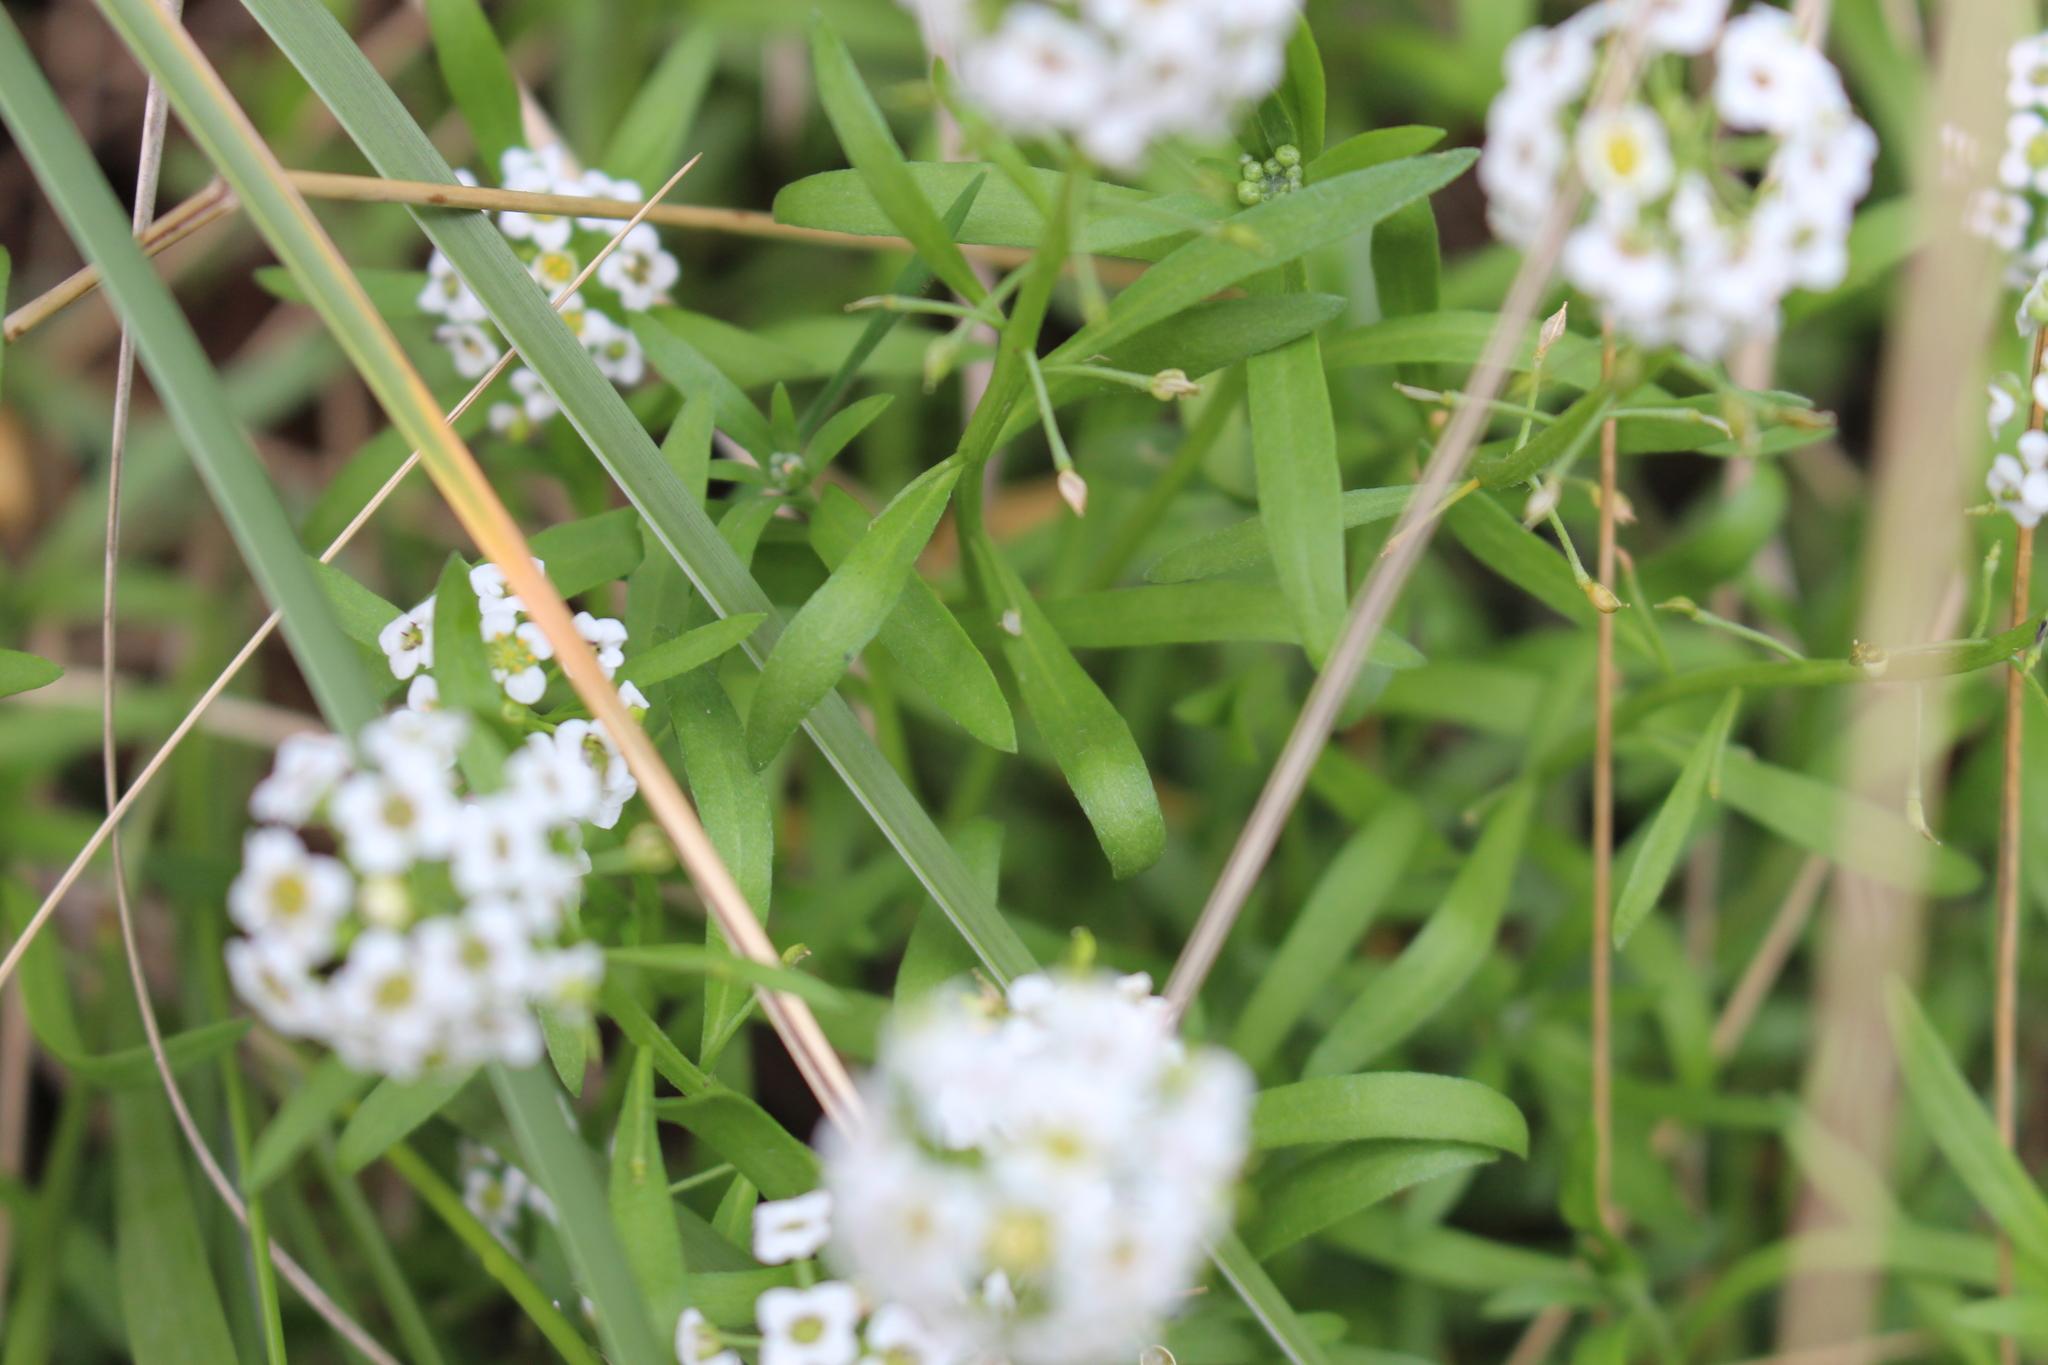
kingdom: Plantae
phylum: Tracheophyta
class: Magnoliopsida
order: Brassicales
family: Brassicaceae
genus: Lobularia
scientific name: Lobularia maritima
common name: Sweet alison
